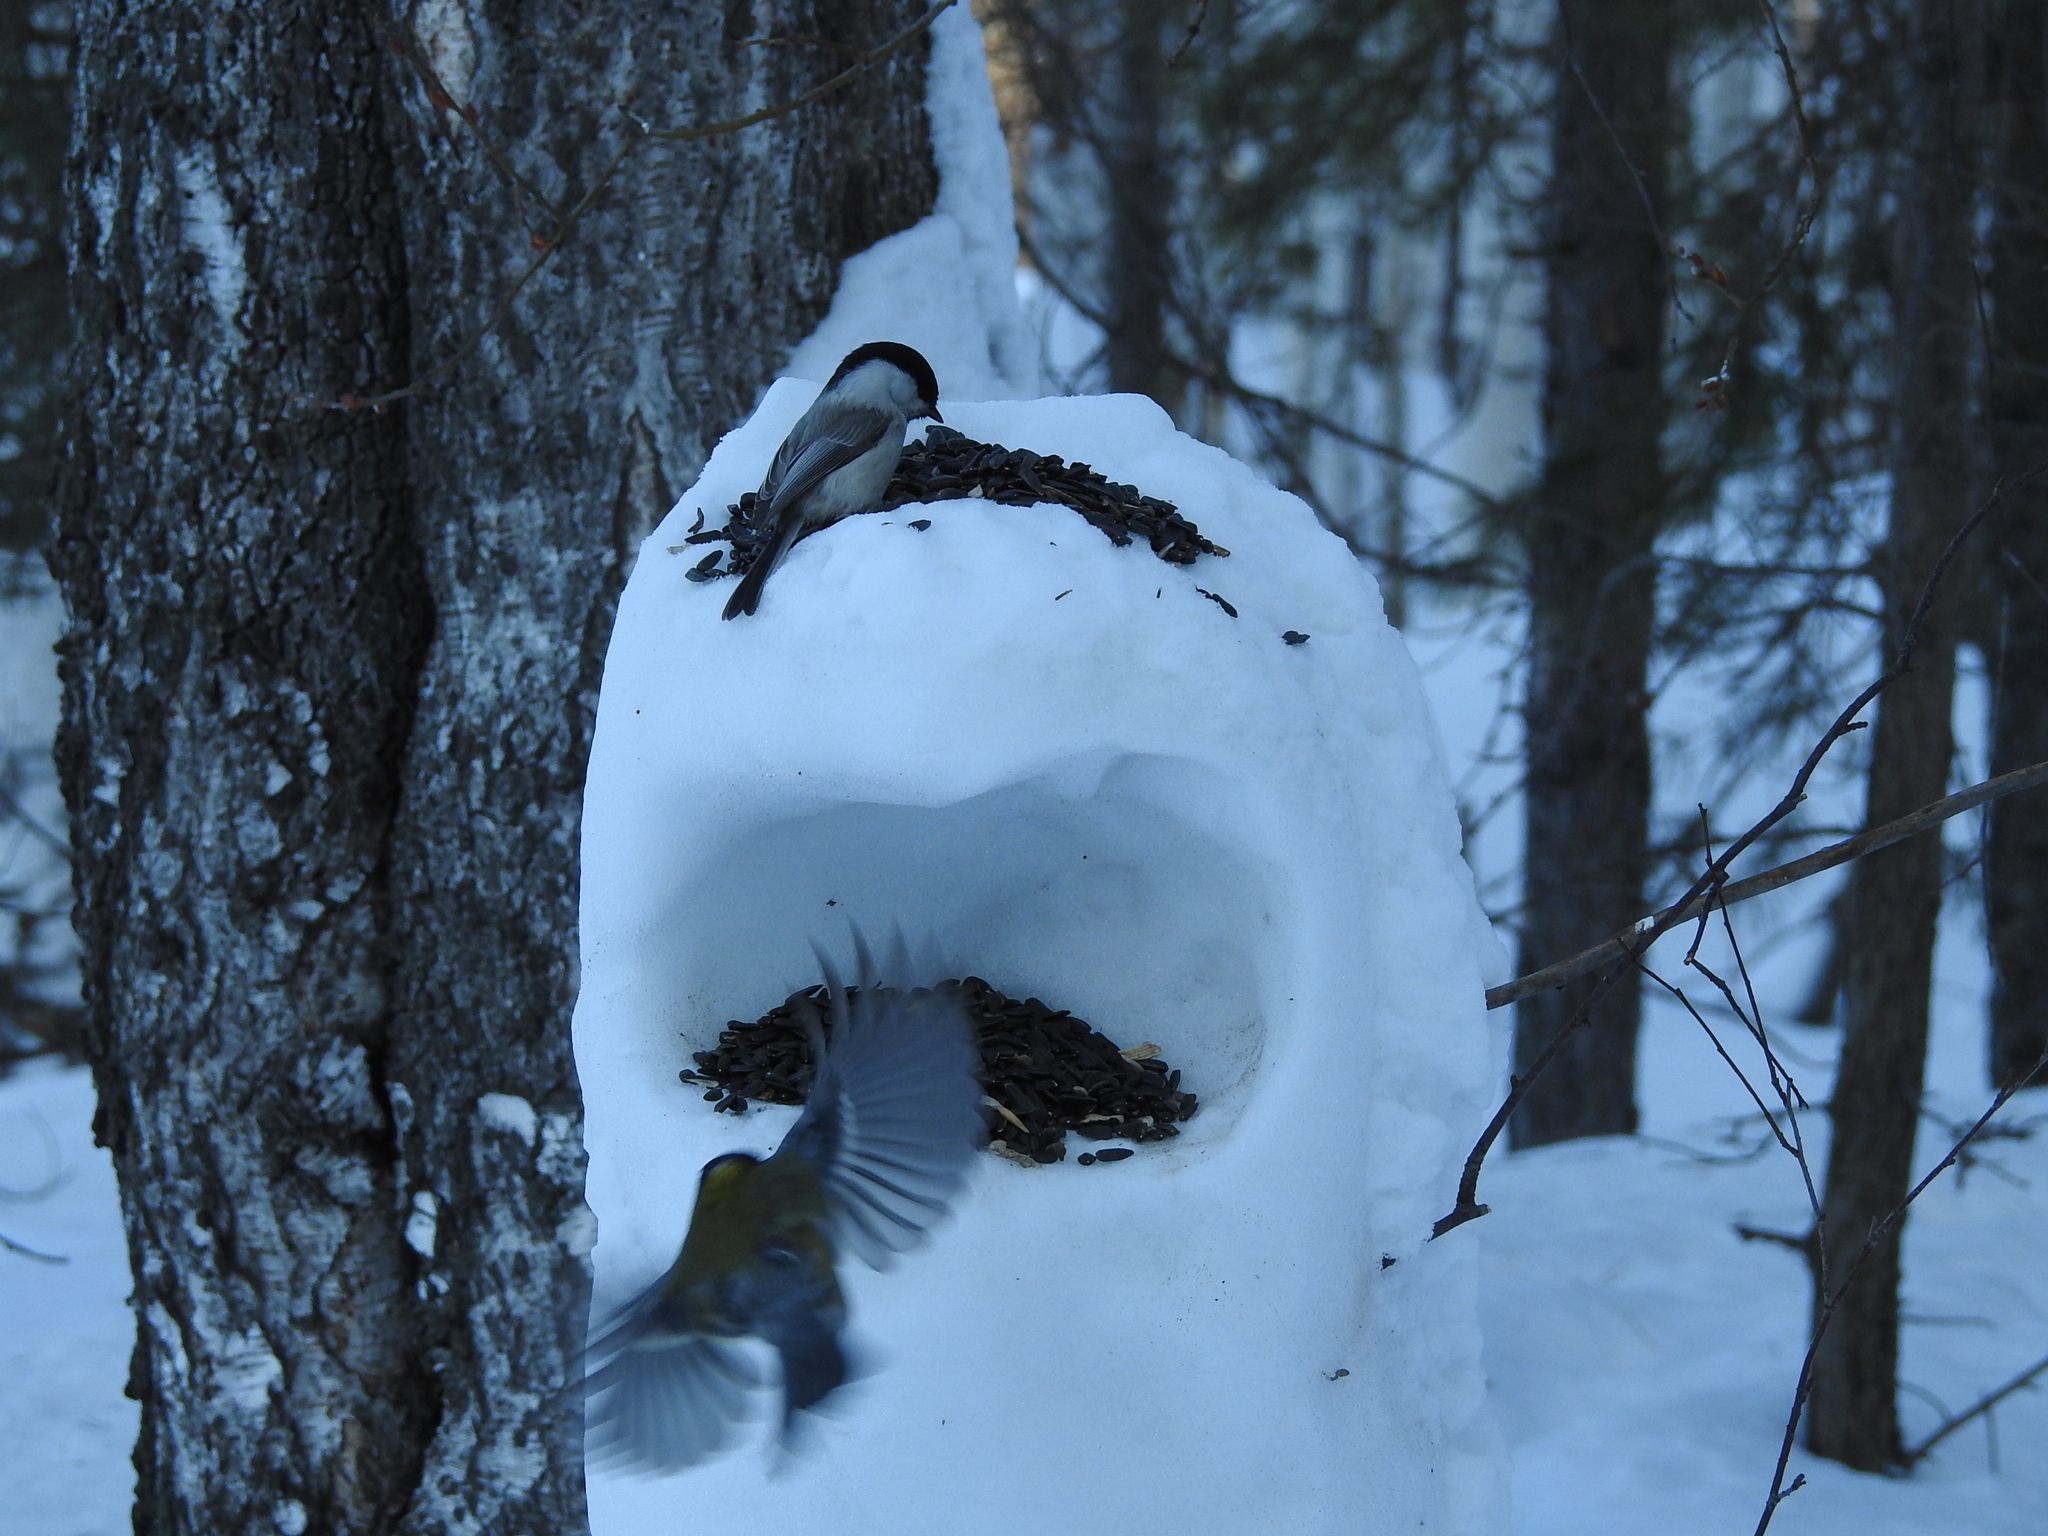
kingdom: Animalia
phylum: Chordata
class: Aves
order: Passeriformes
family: Paridae
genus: Poecile
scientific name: Poecile montanus
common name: Willow tit
